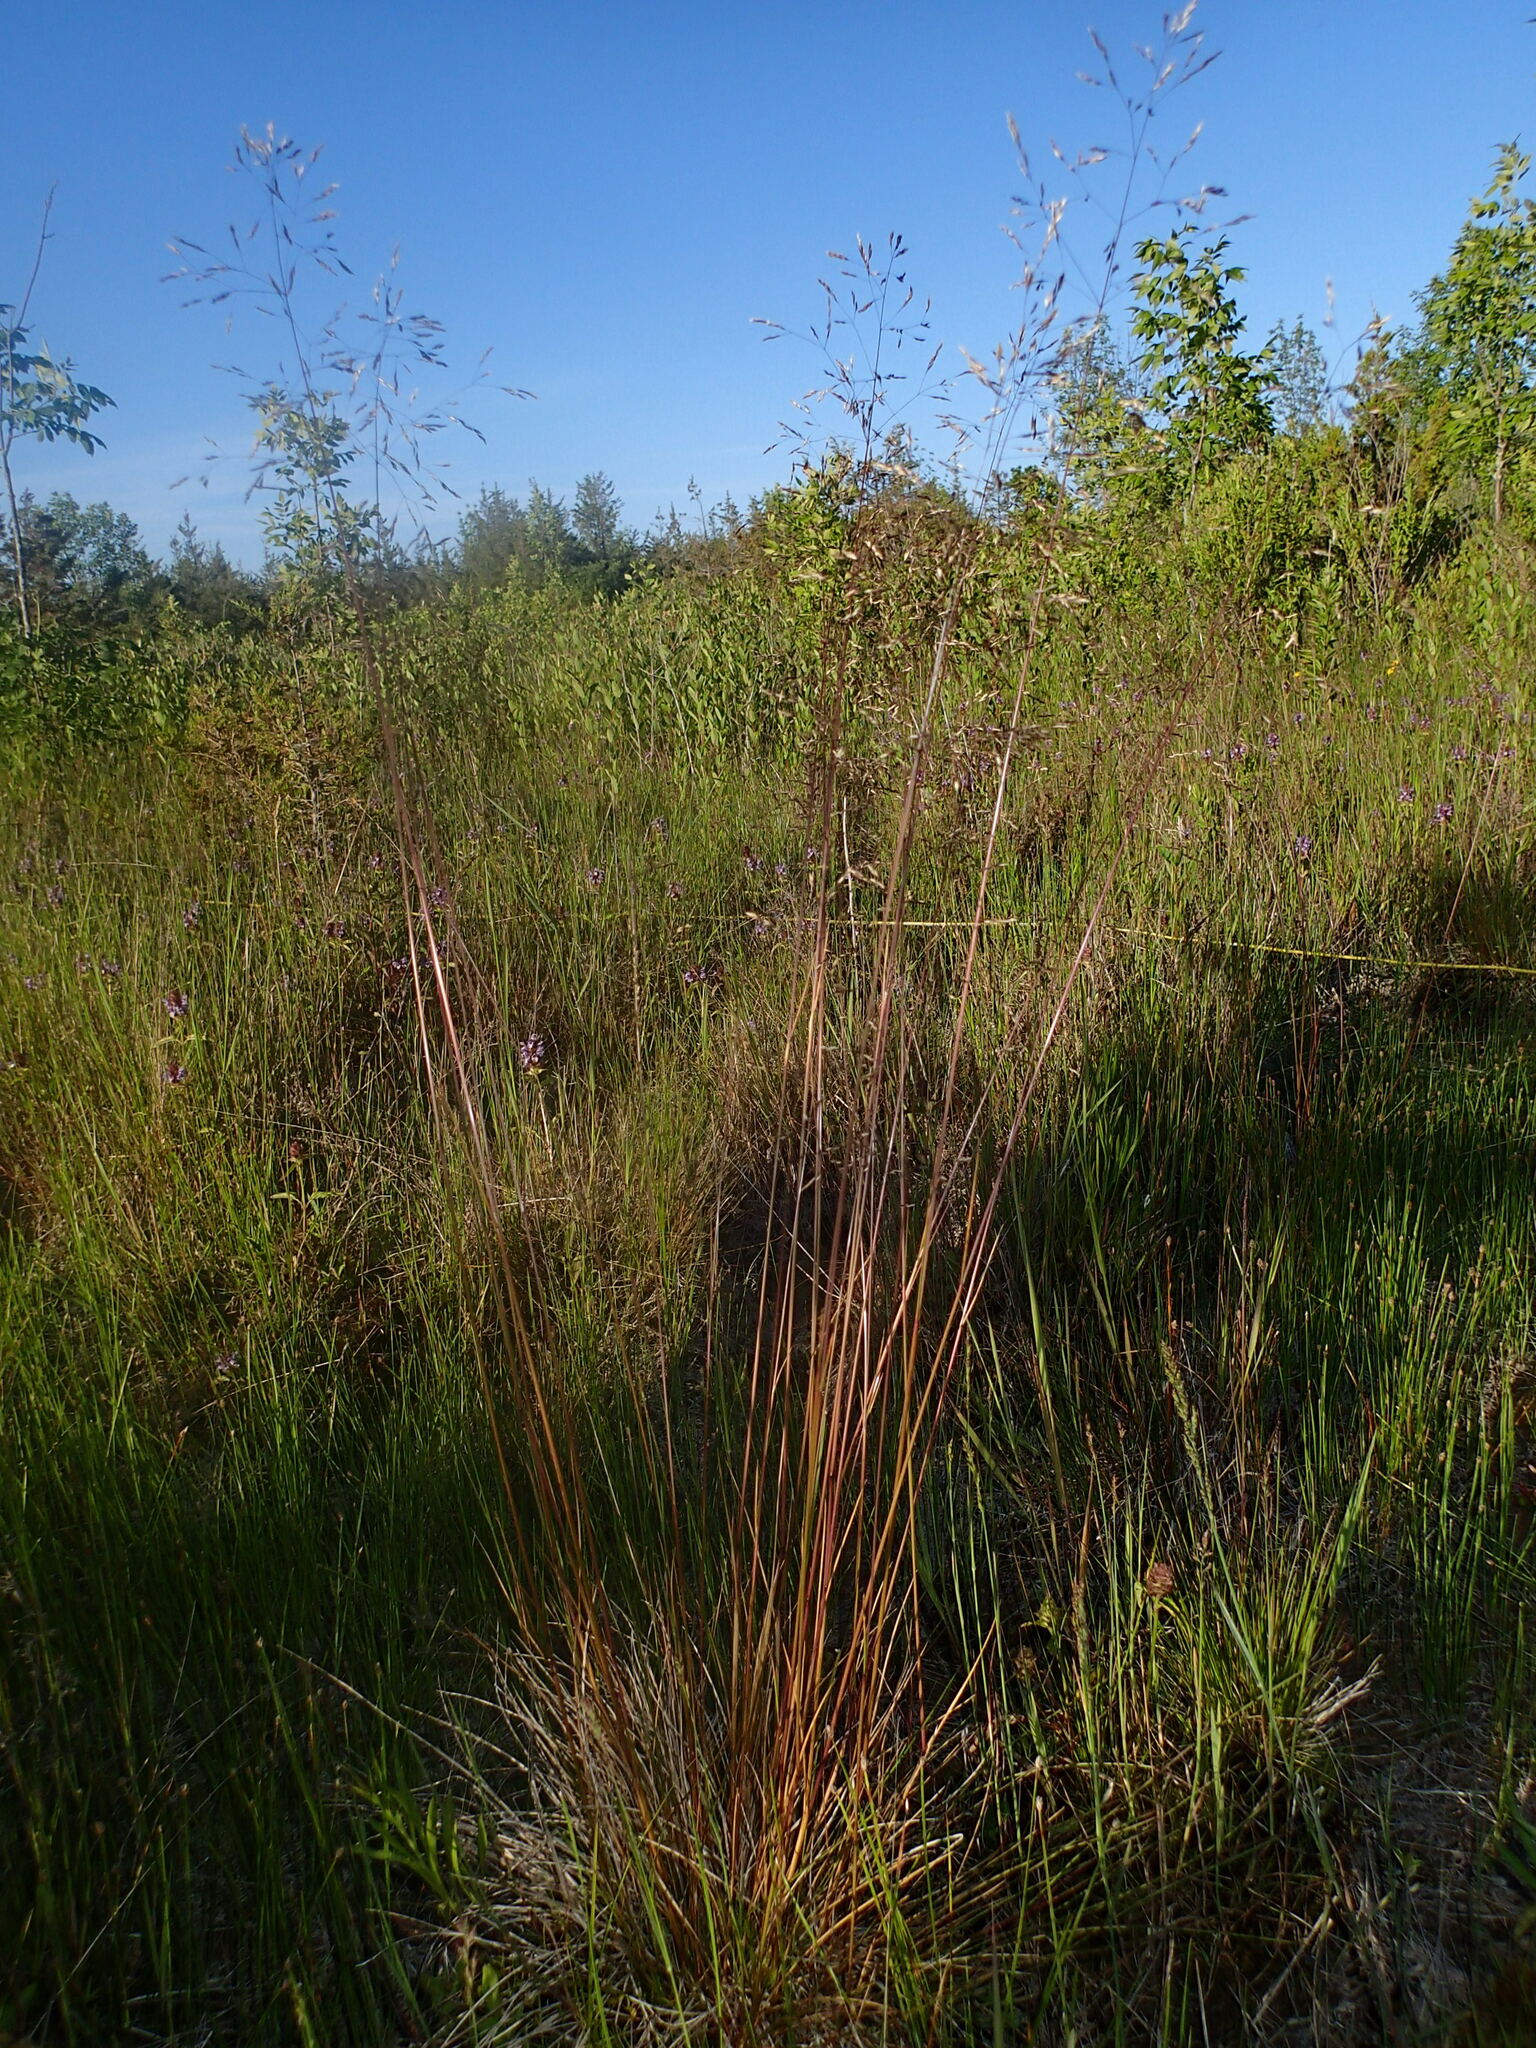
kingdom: Plantae
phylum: Tracheophyta
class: Liliopsida
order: Poales
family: Poaceae
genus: Deschampsia
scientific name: Deschampsia cespitosa
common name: Tufted hair-grass
